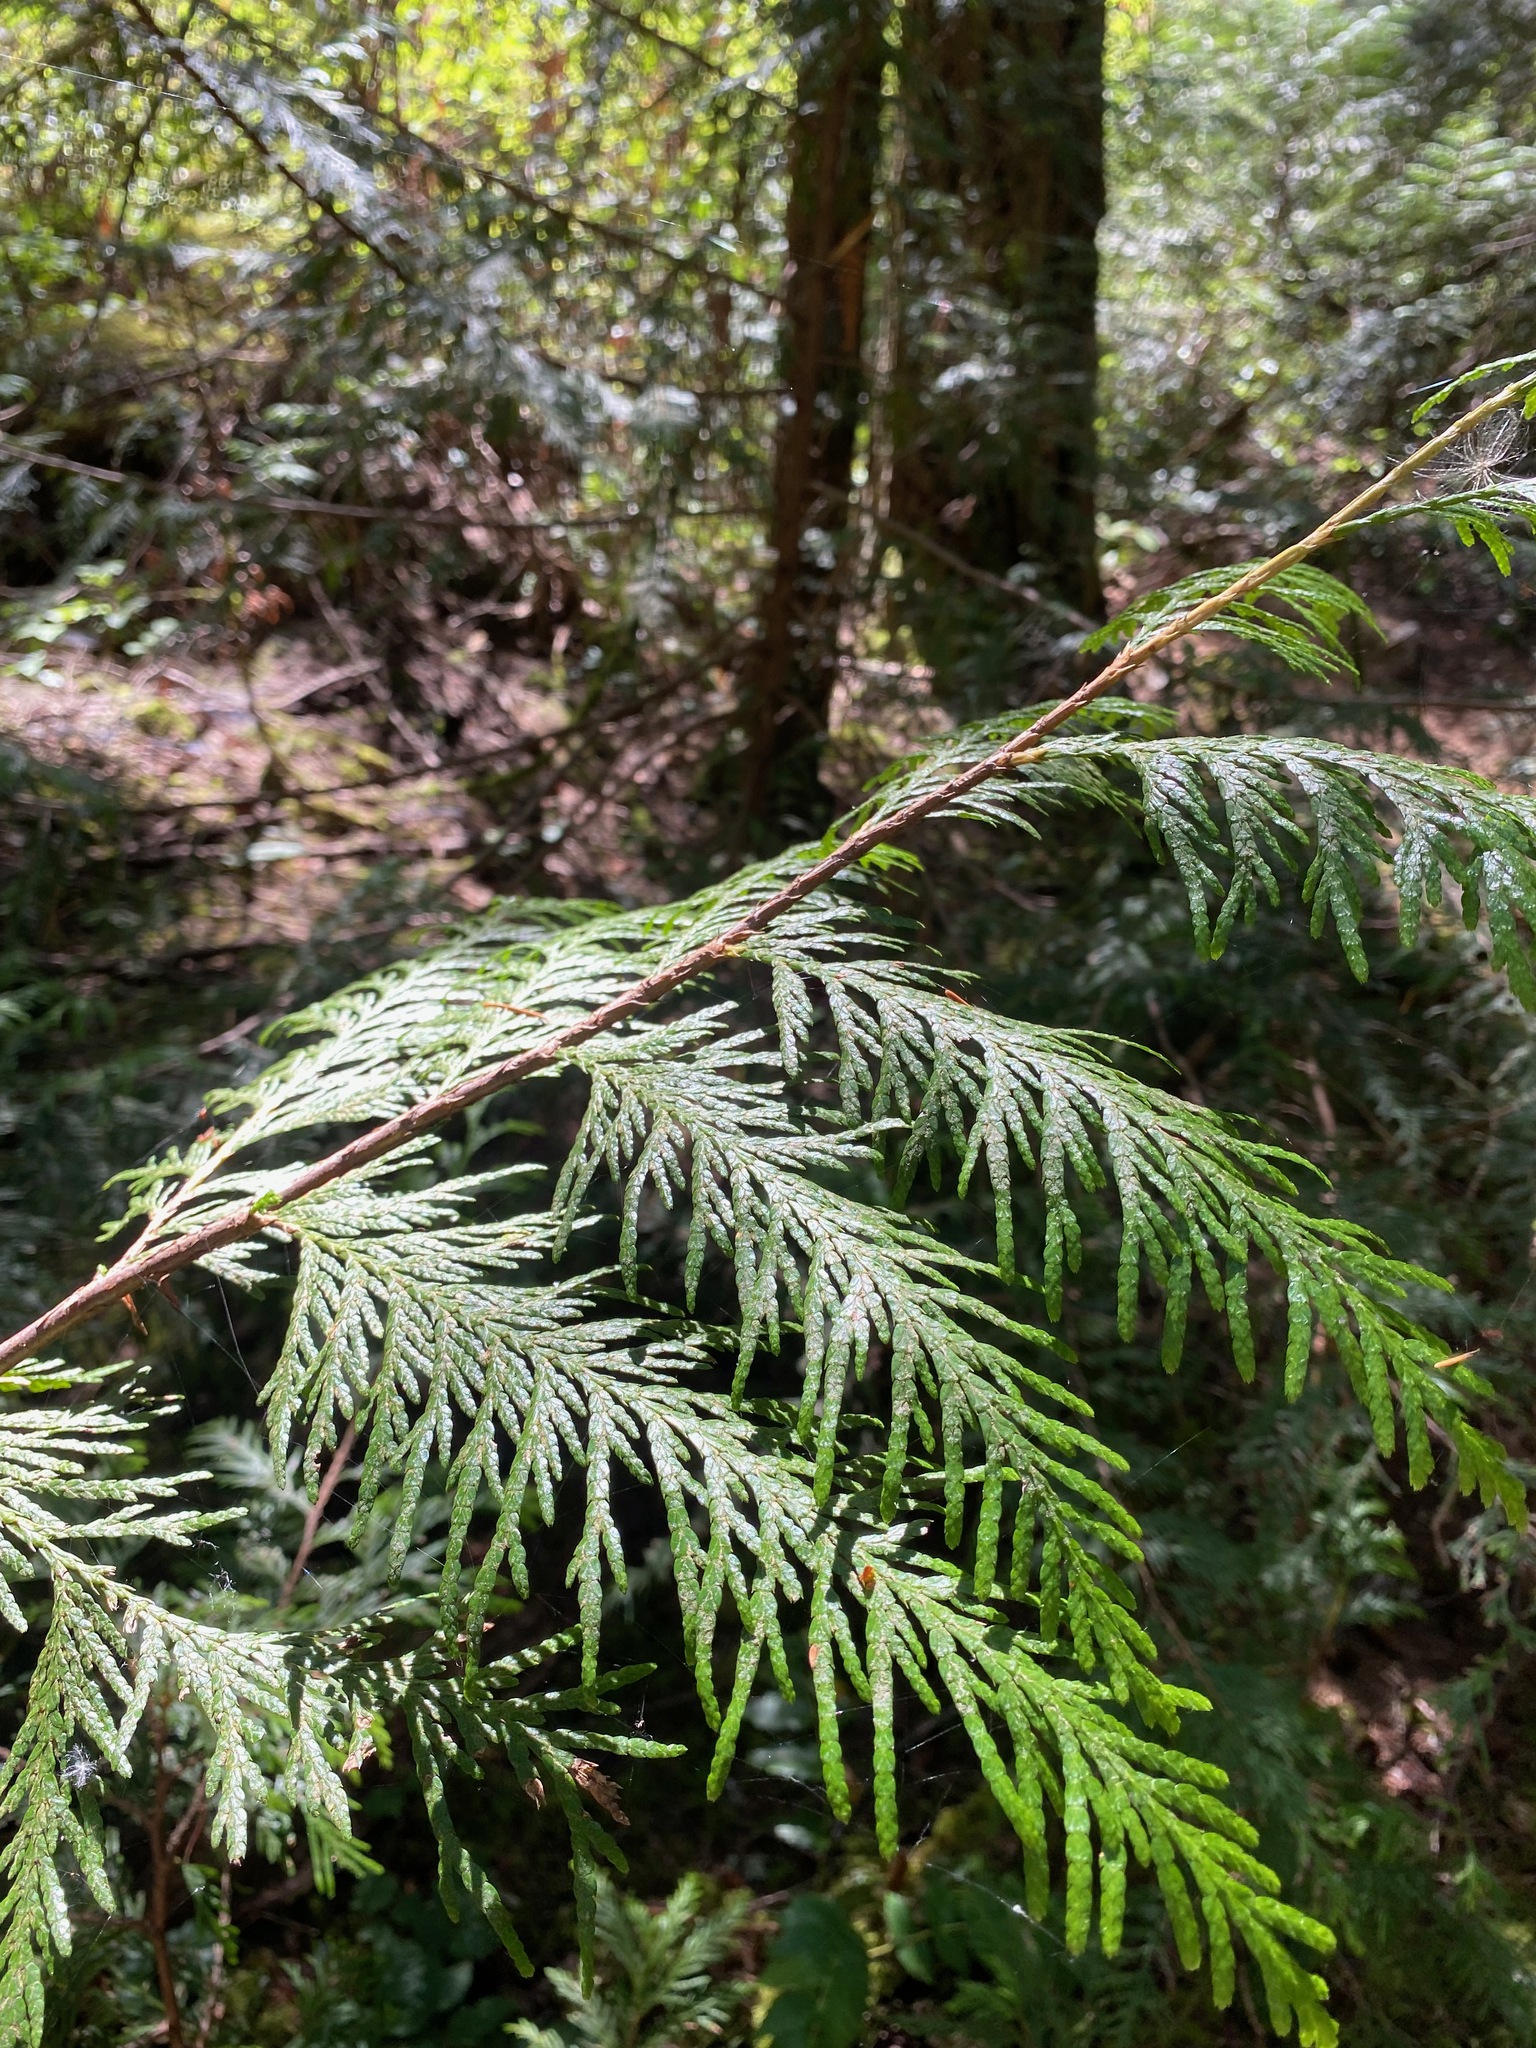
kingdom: Plantae
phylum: Tracheophyta
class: Pinopsida
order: Pinales
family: Cupressaceae
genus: Thuja
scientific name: Thuja plicata
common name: Western red-cedar
